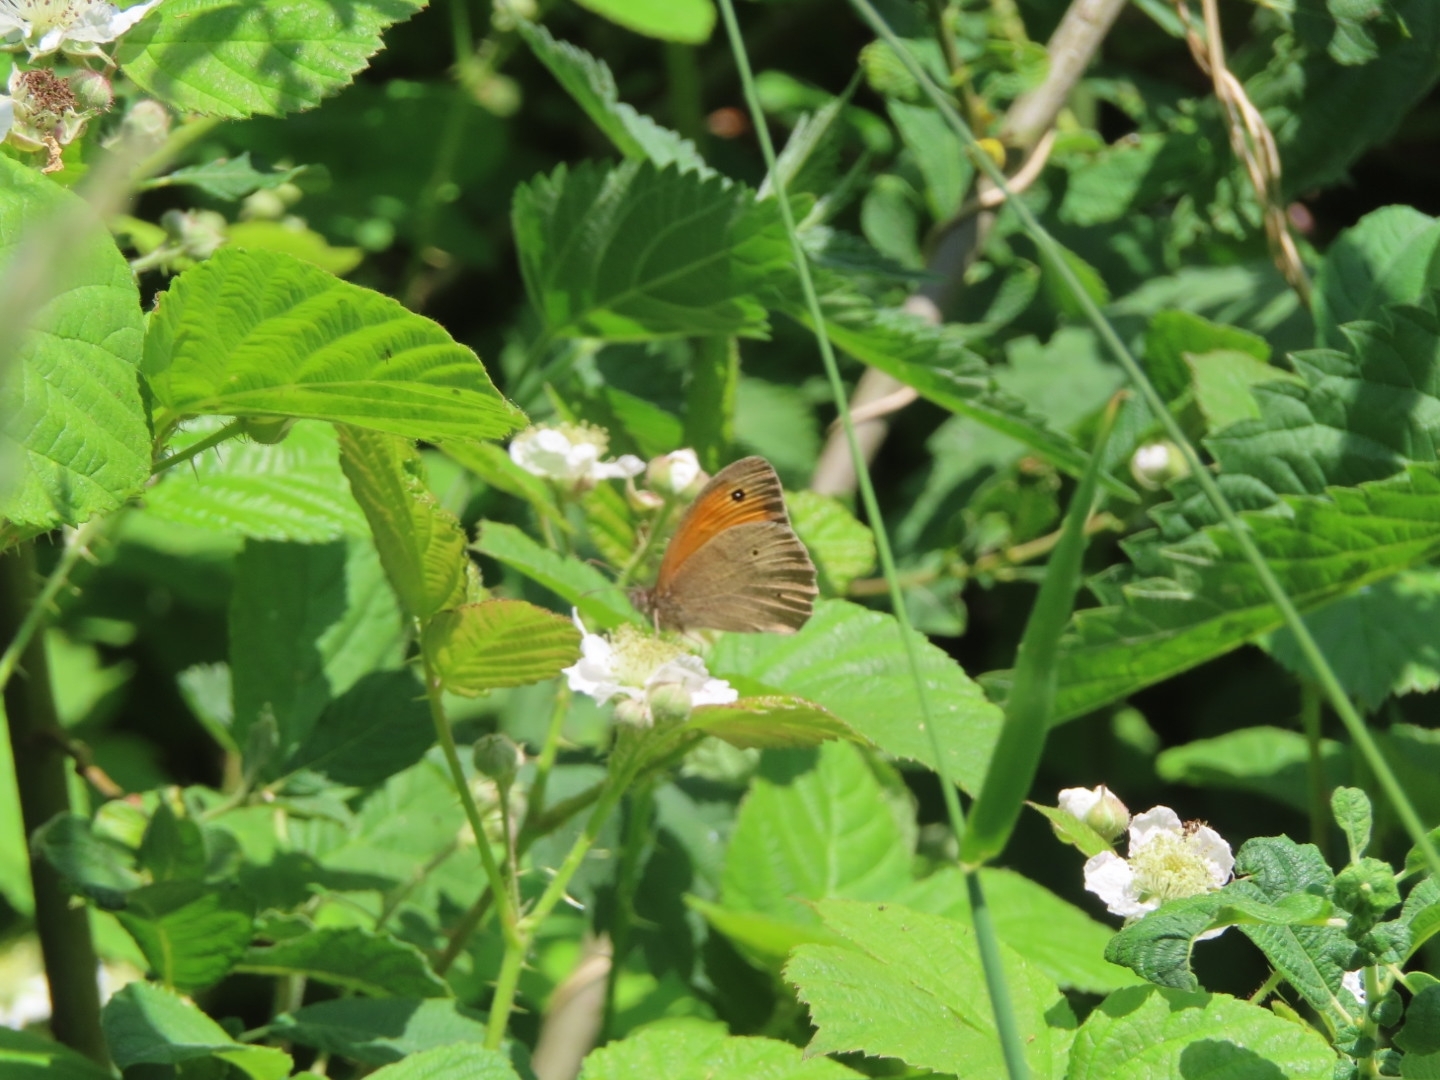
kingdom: Animalia
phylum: Arthropoda
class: Insecta
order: Lepidoptera
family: Nymphalidae
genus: Maniola
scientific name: Maniola jurtina
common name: Meadow brown
